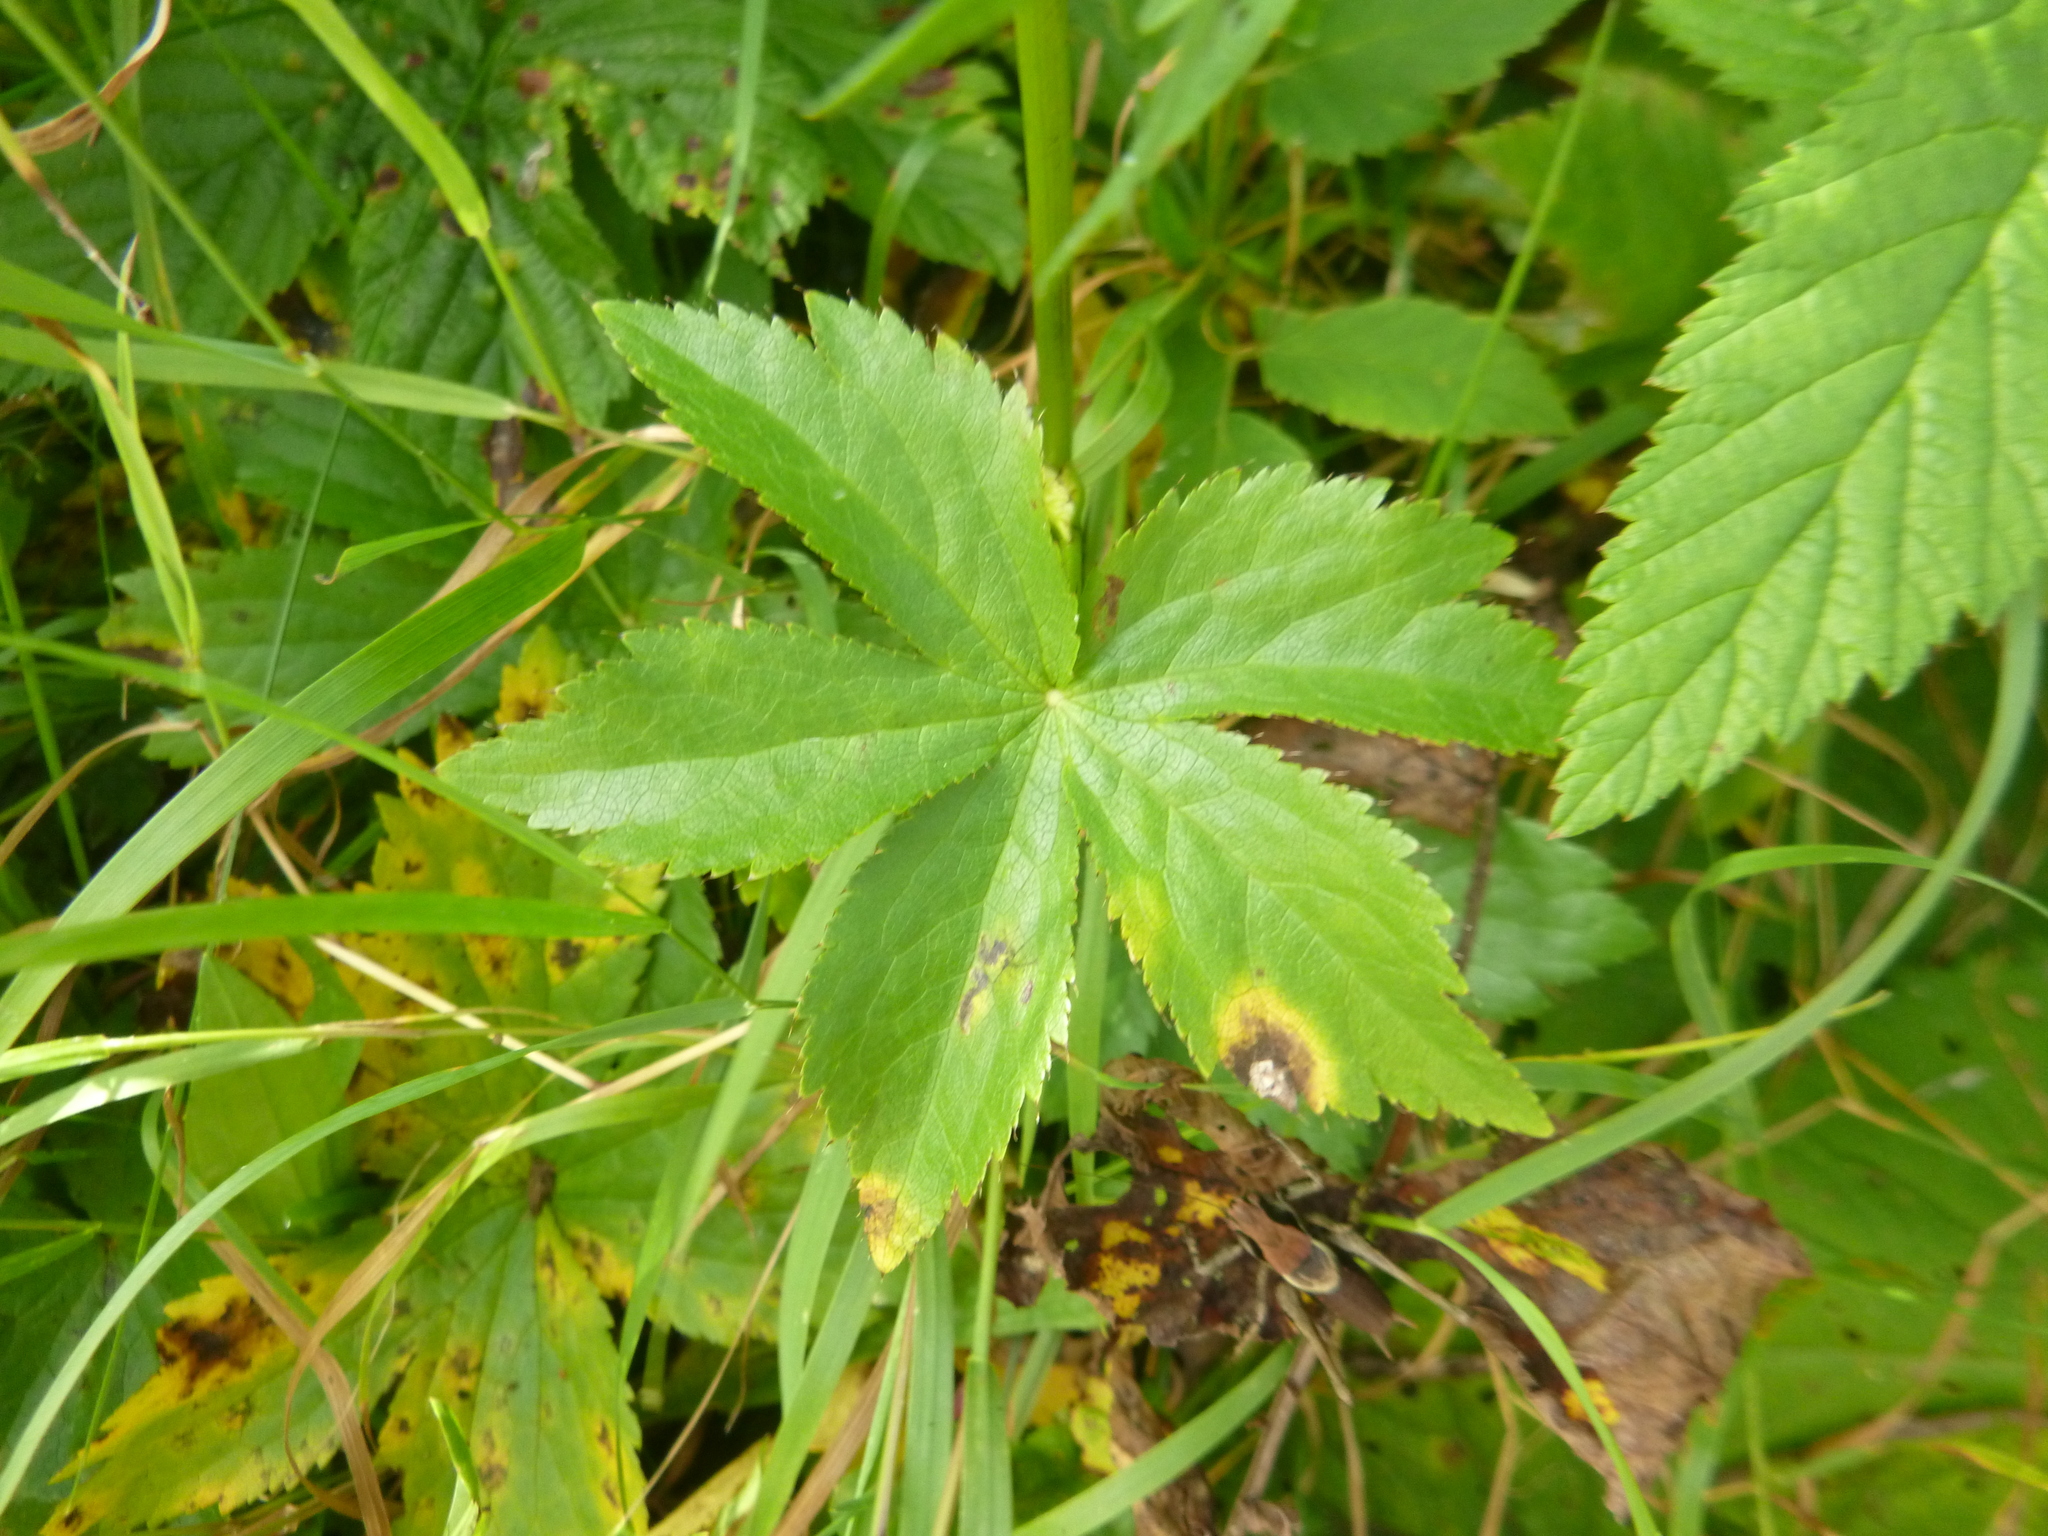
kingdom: Plantae
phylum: Tracheophyta
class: Magnoliopsida
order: Apiales
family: Apiaceae
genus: Astrantia
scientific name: Astrantia major
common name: Greater masterwort
